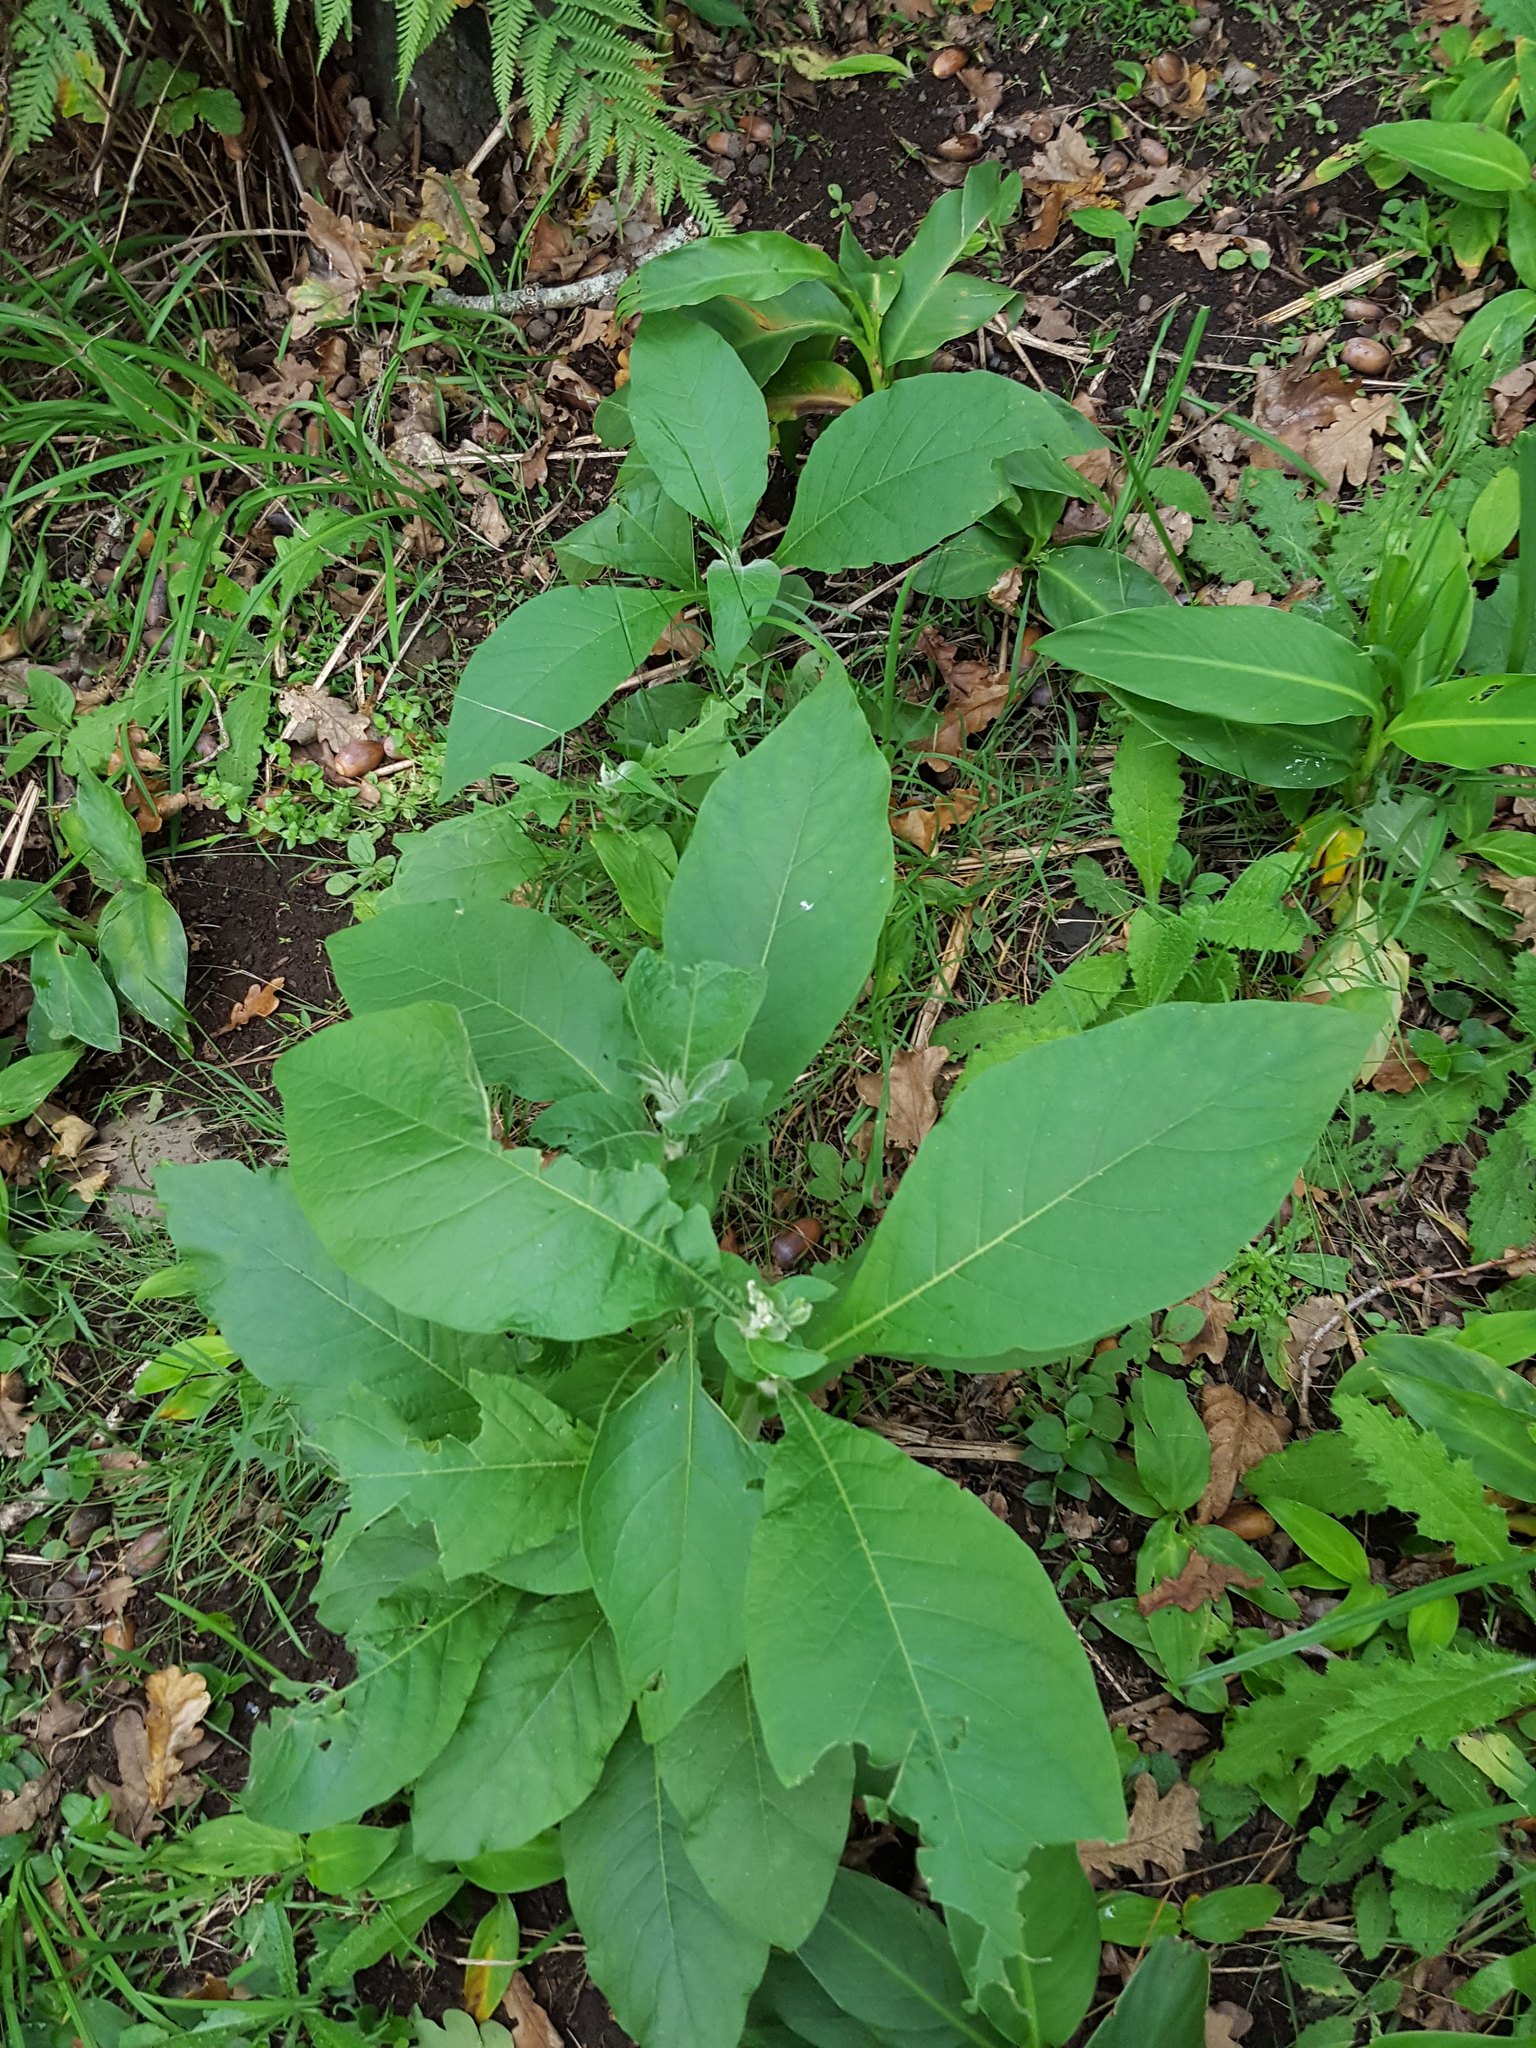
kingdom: Plantae
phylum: Tracheophyta
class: Magnoliopsida
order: Solanales
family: Solanaceae
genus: Solanum
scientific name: Solanum mauritianum
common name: Earleaf nightshade
